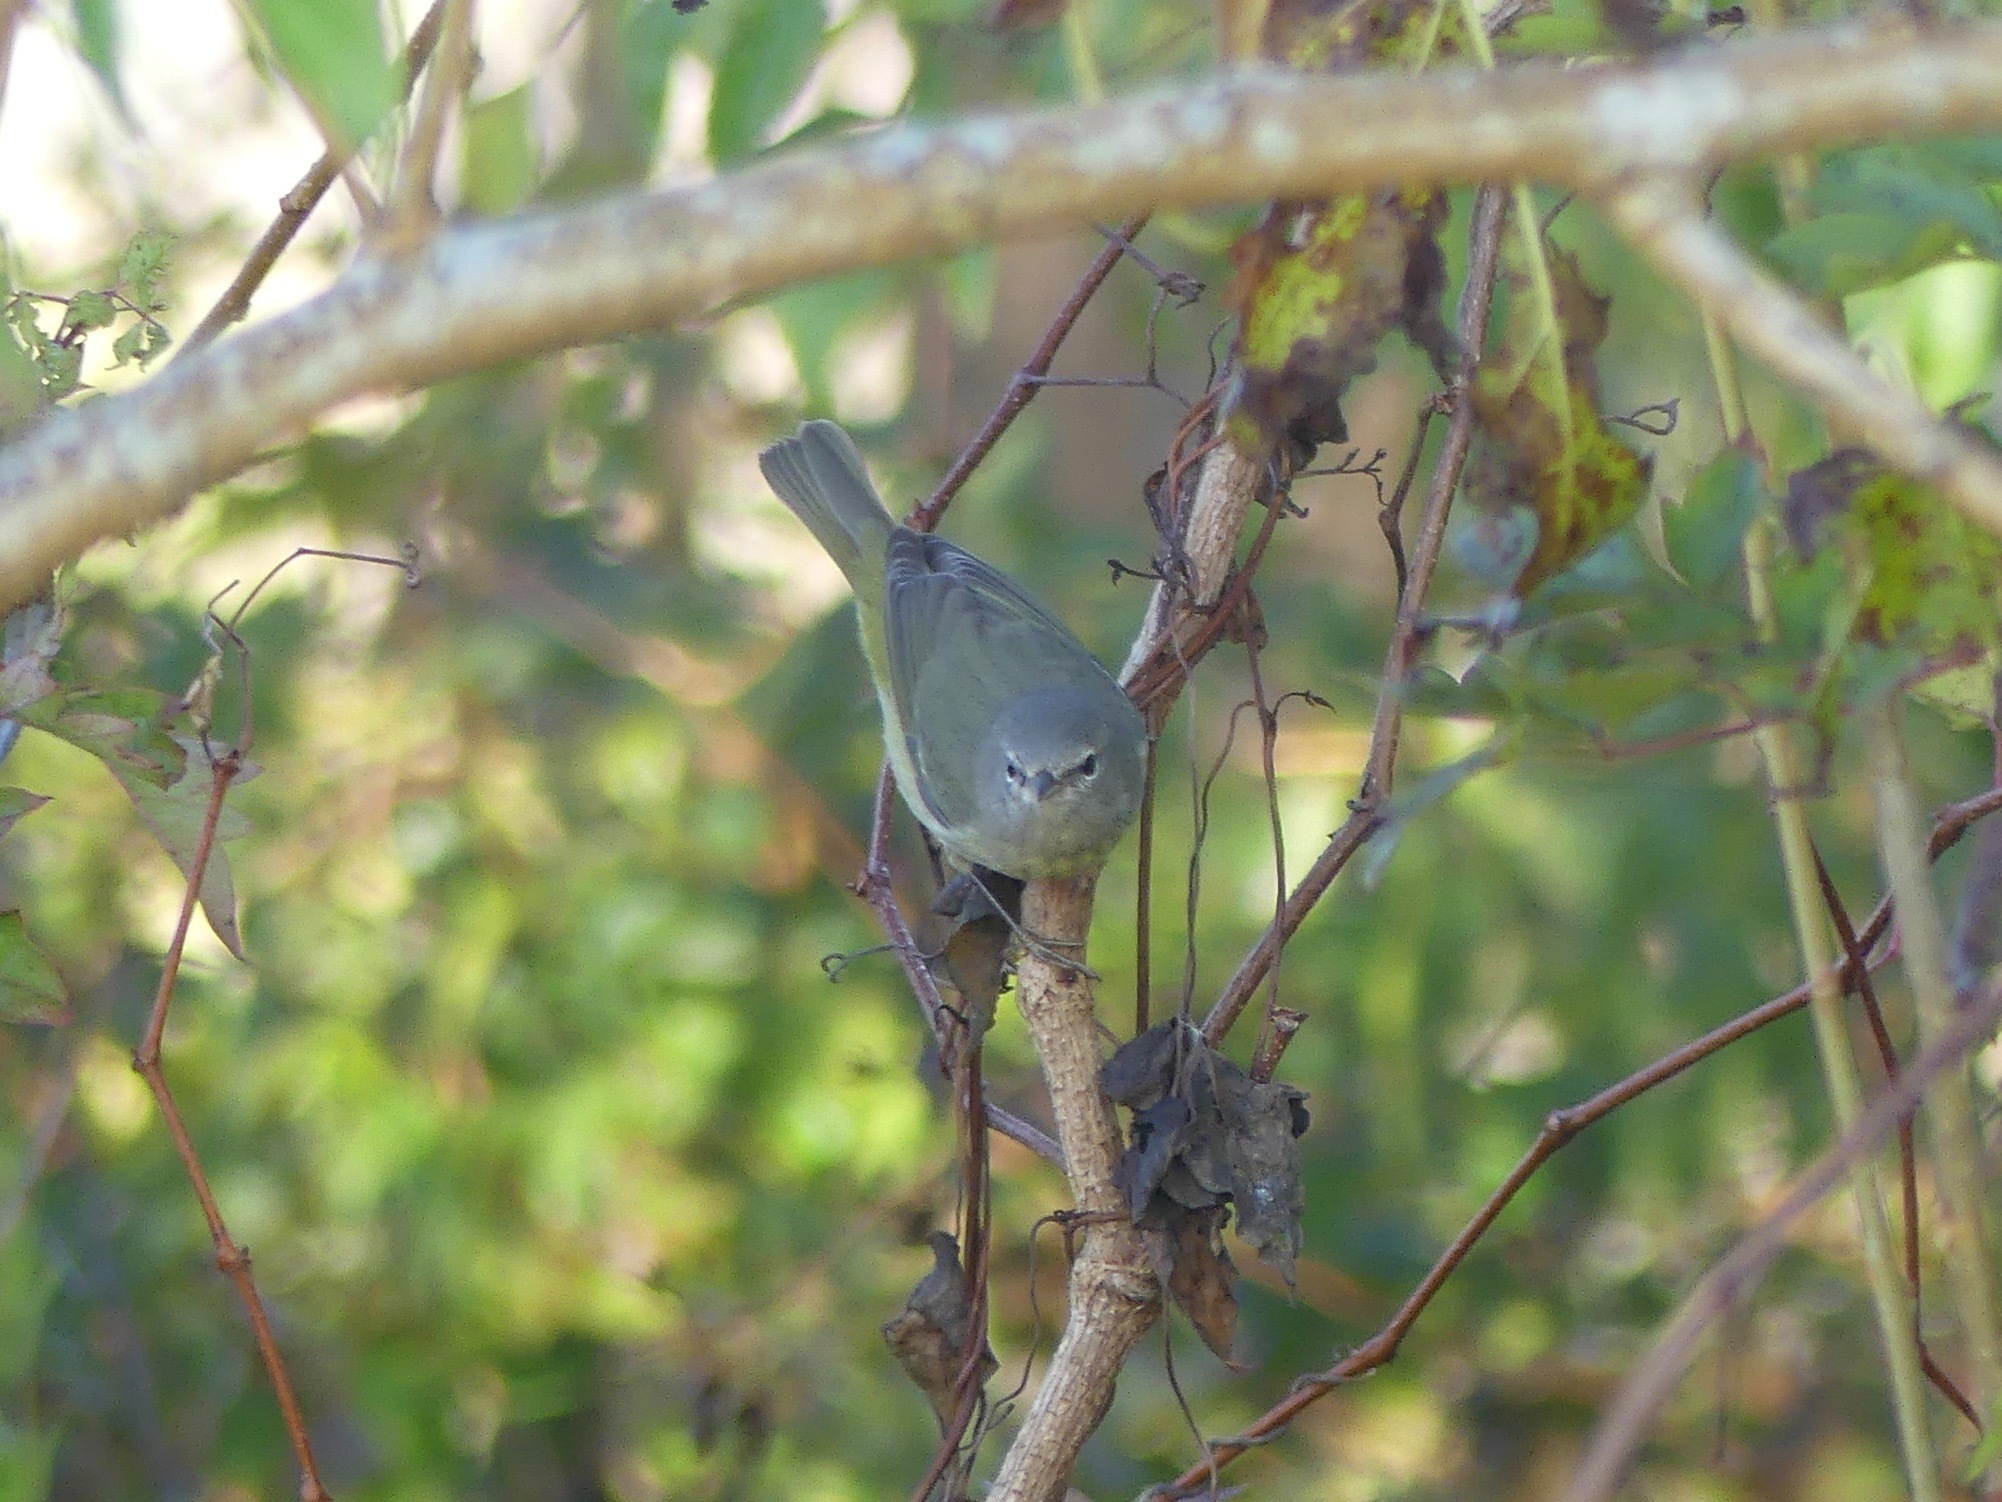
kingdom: Animalia
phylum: Chordata
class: Aves
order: Passeriformes
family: Parulidae
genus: Leiothlypis
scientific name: Leiothlypis celata
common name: Orange-crowned warbler
